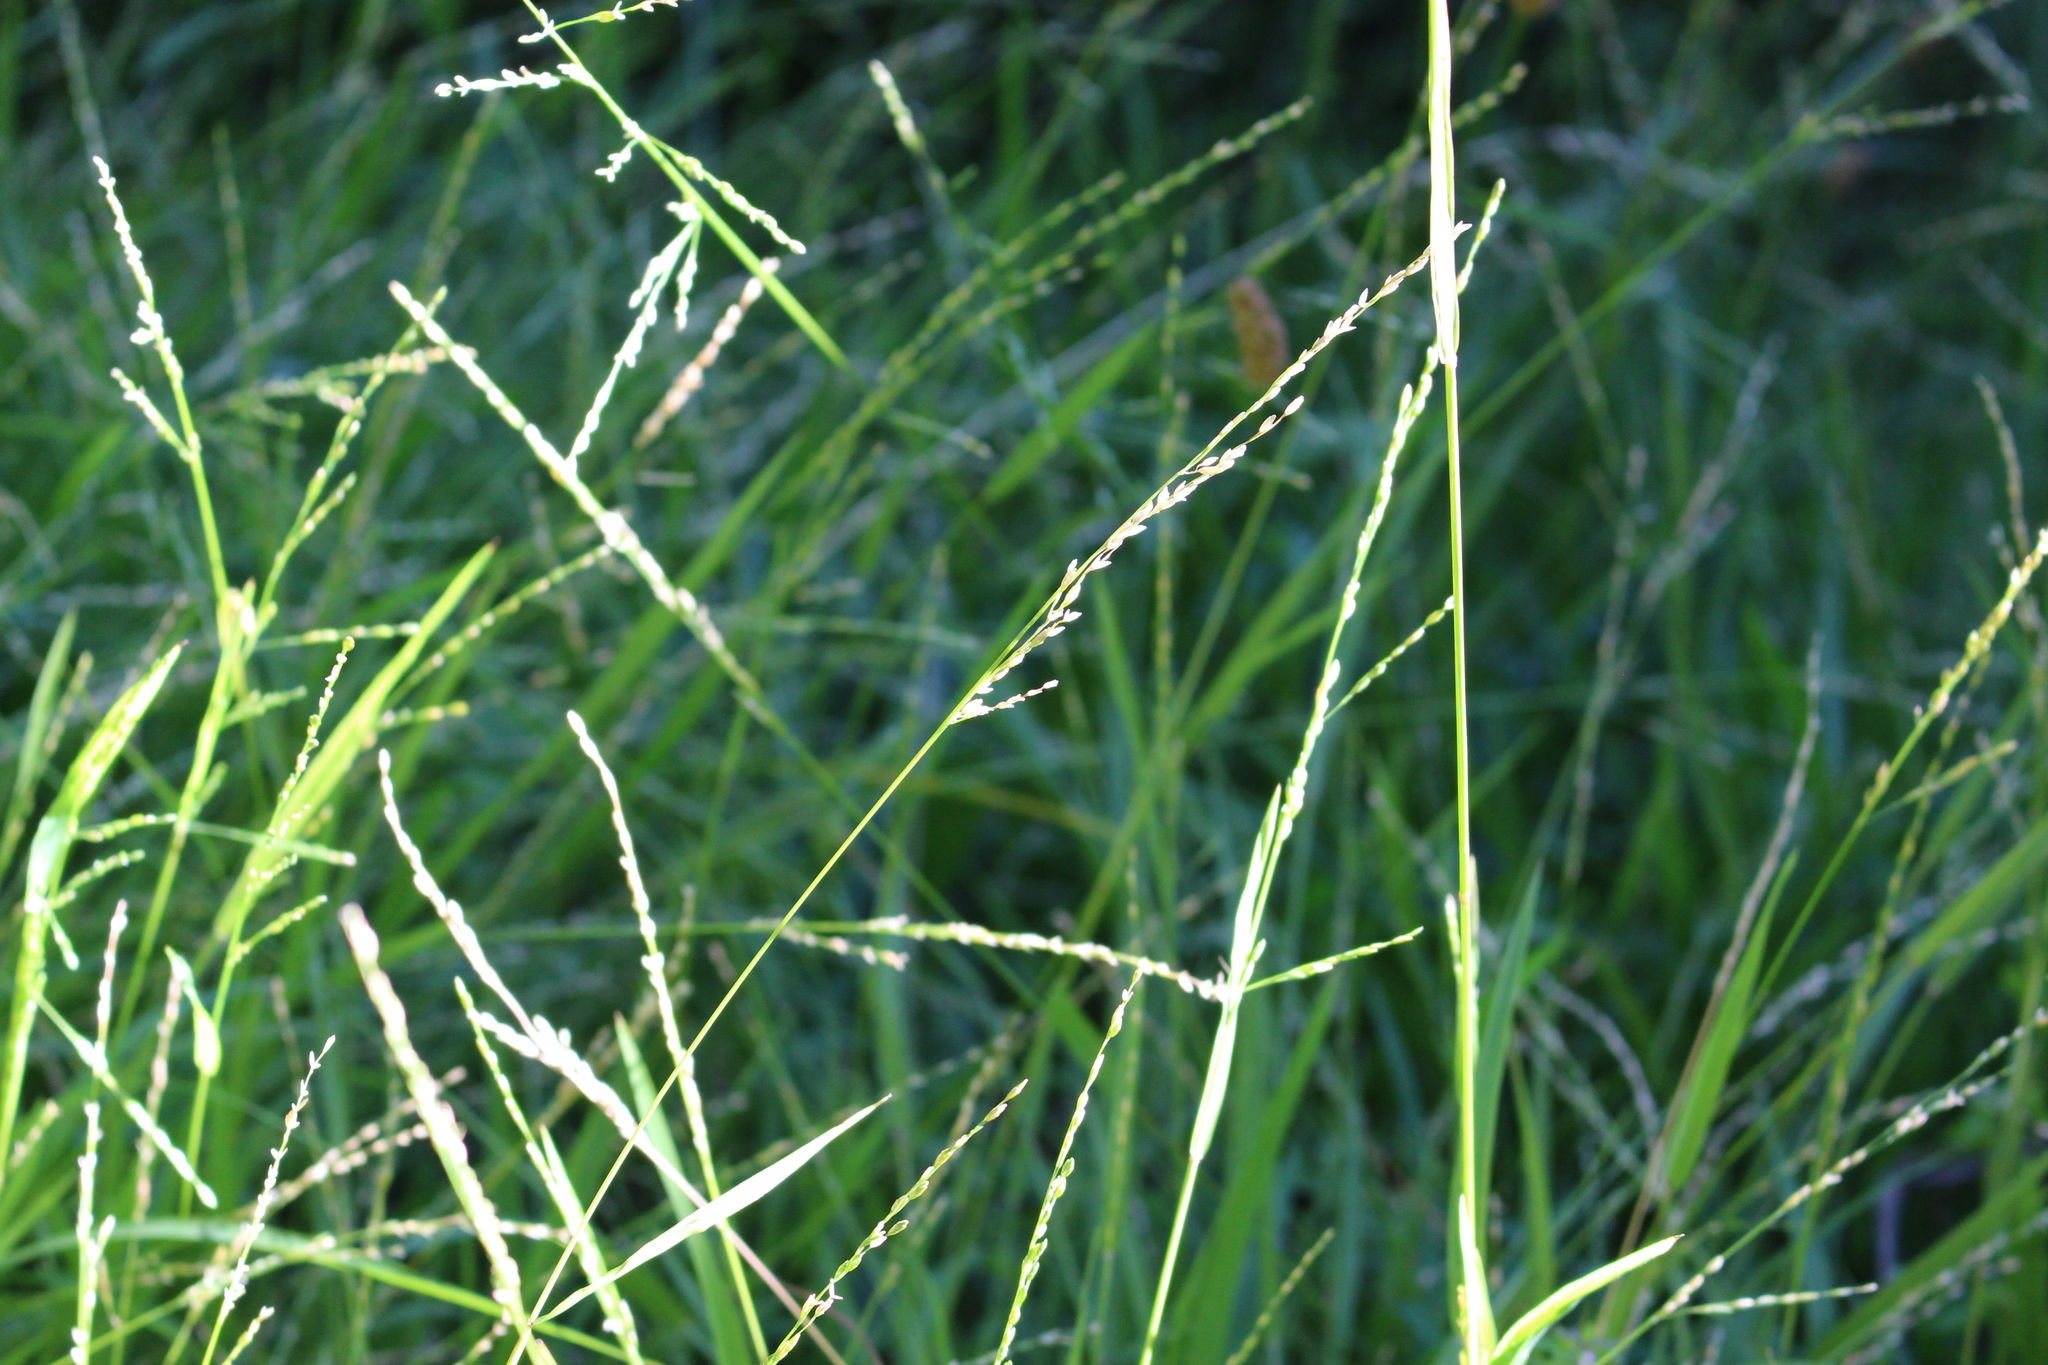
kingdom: Plantae
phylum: Tracheophyta
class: Liliopsida
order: Poales
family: Poaceae
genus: Ehrharta
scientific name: Ehrharta erecta
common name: Panic veldtgrass
